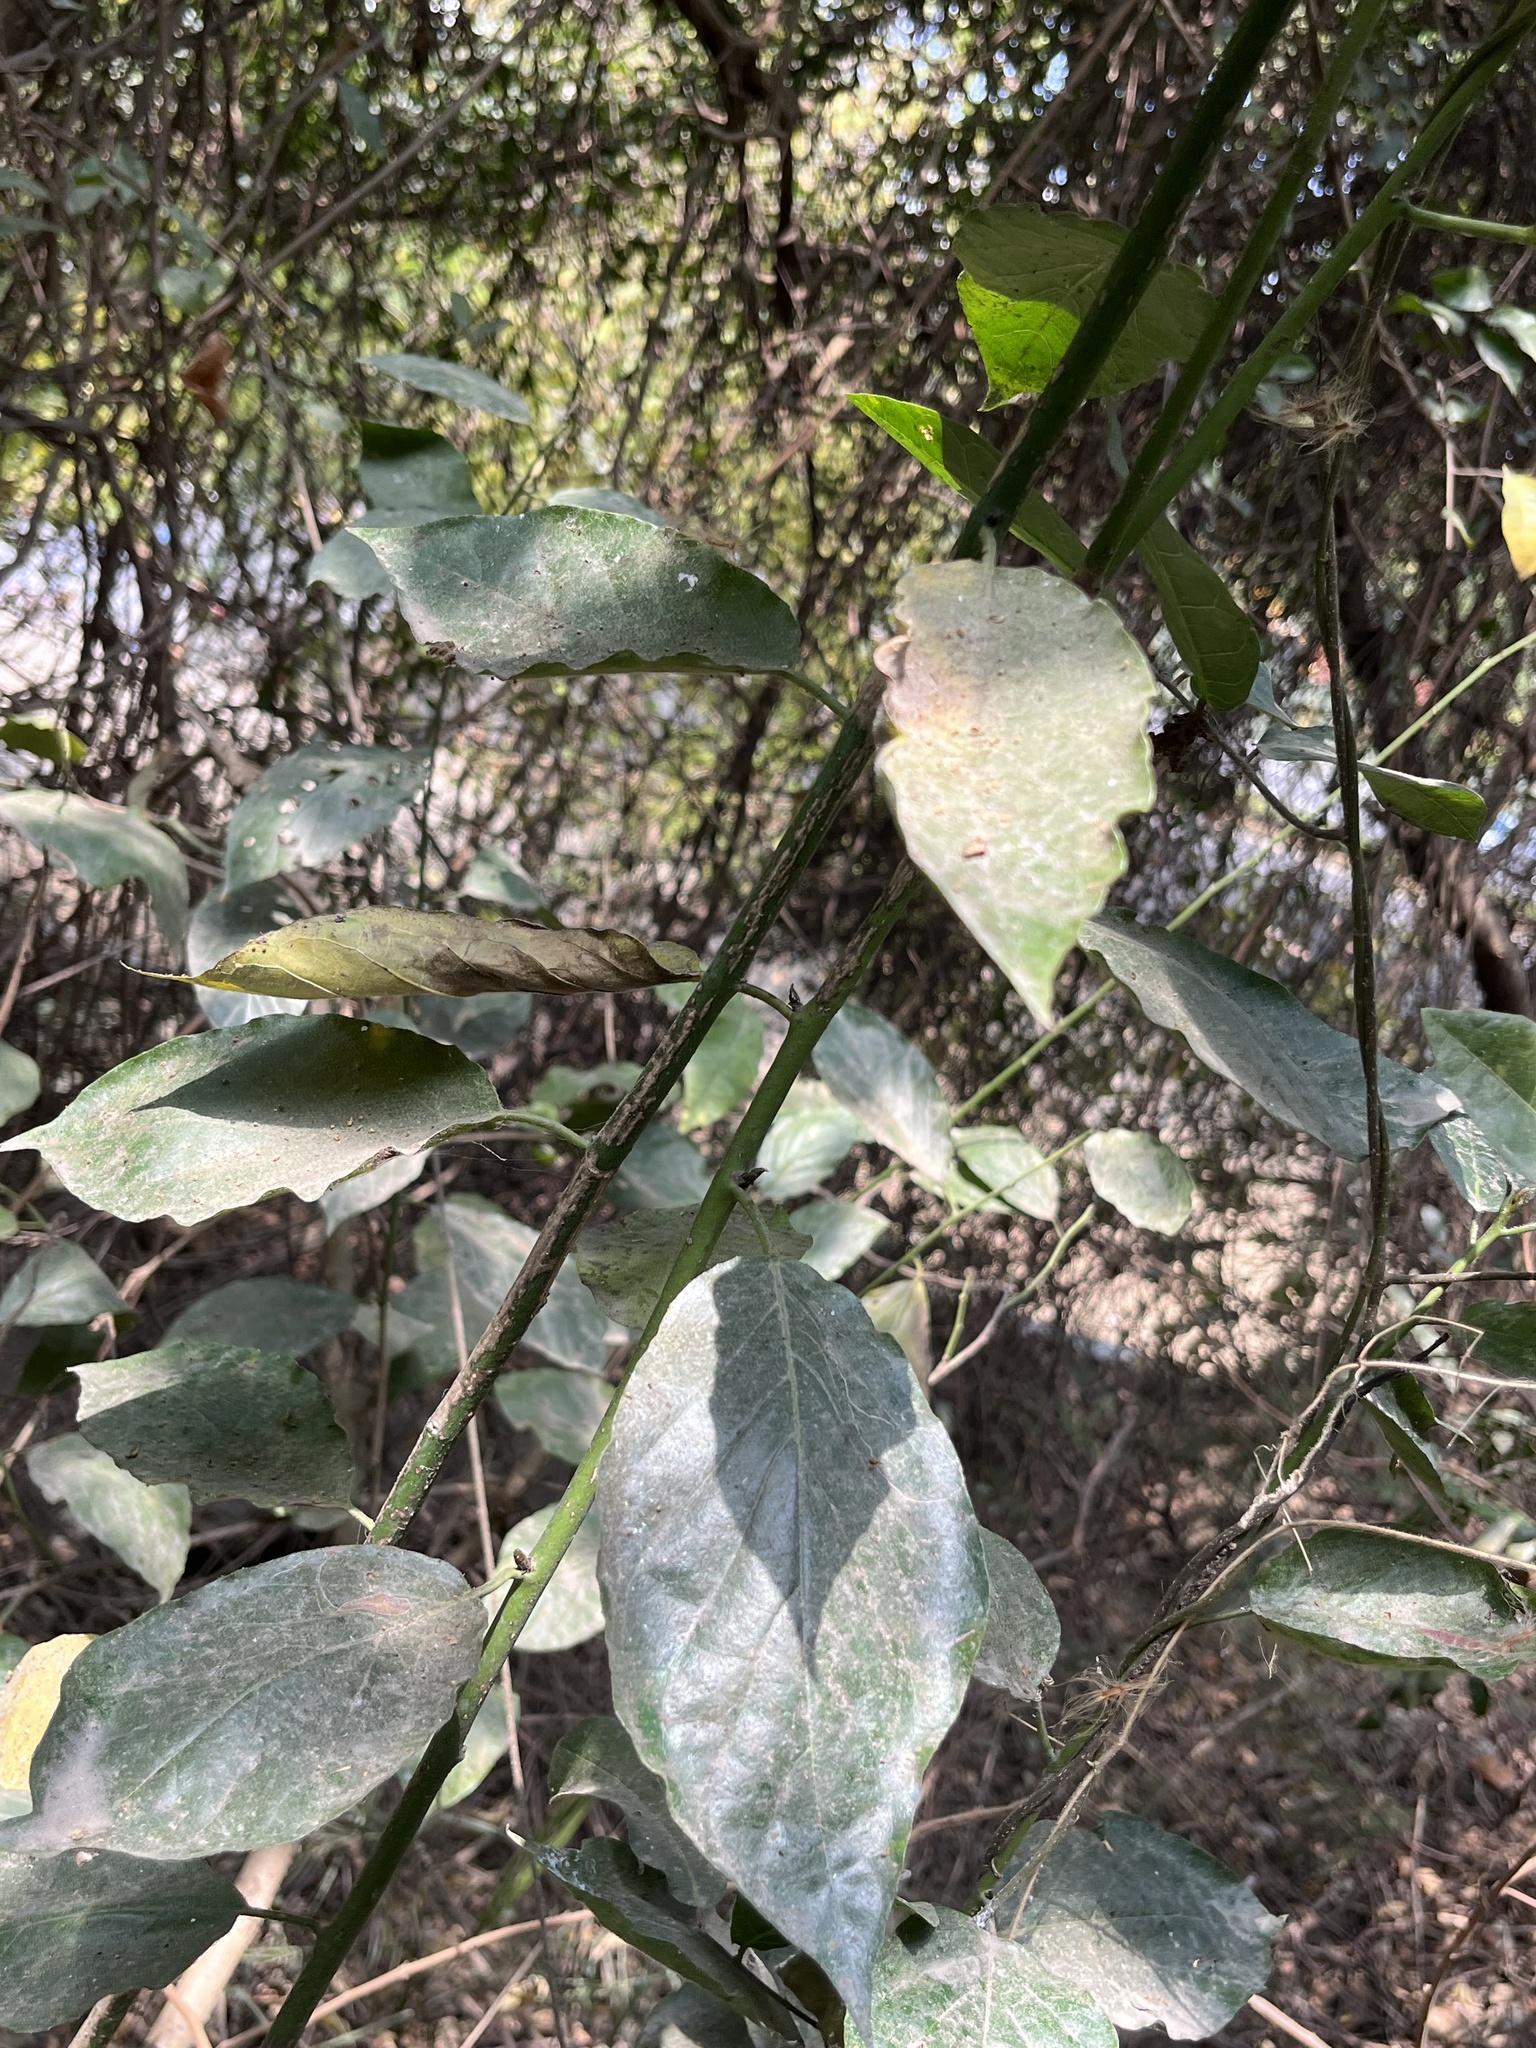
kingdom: Plantae
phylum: Tracheophyta
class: Magnoliopsida
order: Boraginales
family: Ehretiaceae
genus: Ehretia
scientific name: Ehretia resinosa
